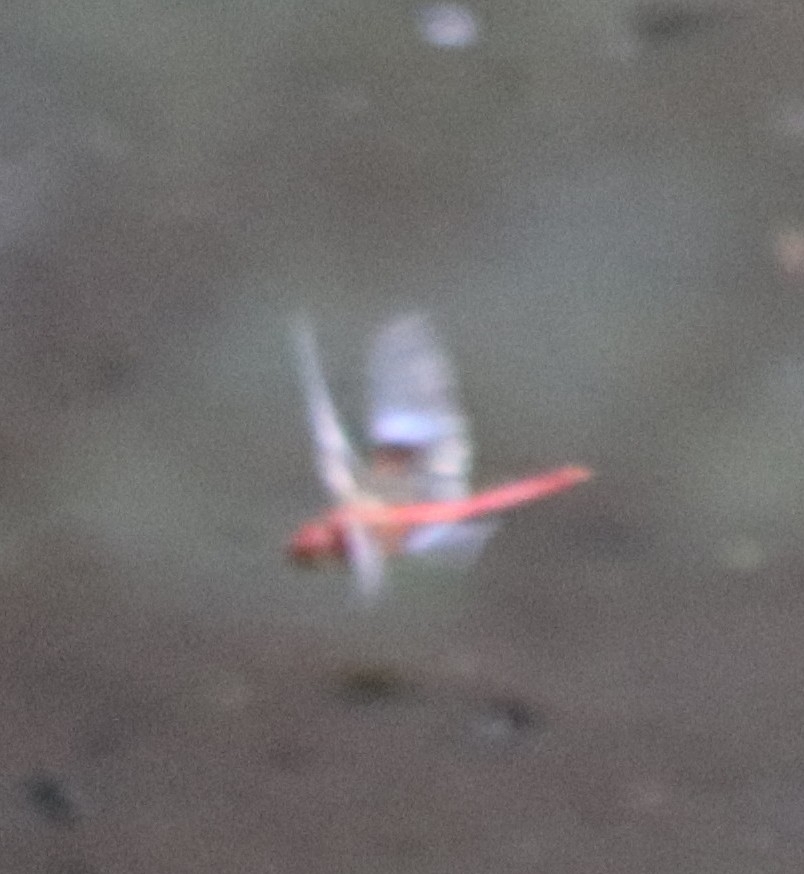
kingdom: Animalia
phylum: Arthropoda
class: Insecta
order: Odonata
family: Libellulidae
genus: Tholymis
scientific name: Tholymis tillarga
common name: Coral-tailed cloud wing
